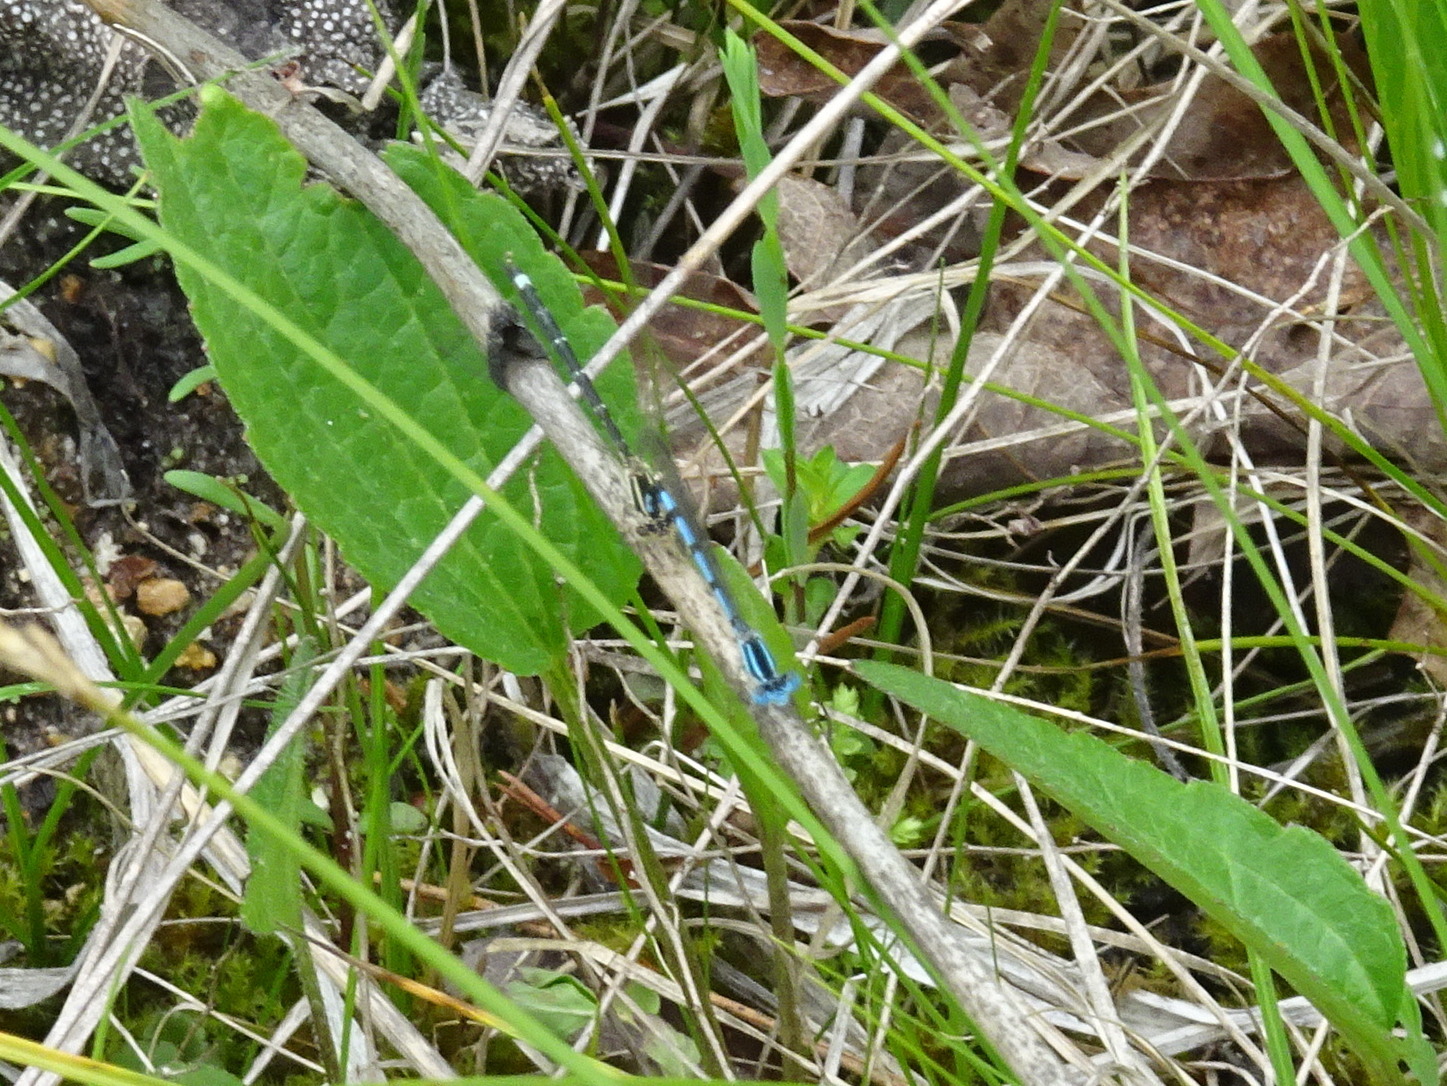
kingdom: Animalia
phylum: Arthropoda
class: Insecta
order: Odonata
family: Coenagrionidae
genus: Argia
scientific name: Argia bipunctulata
